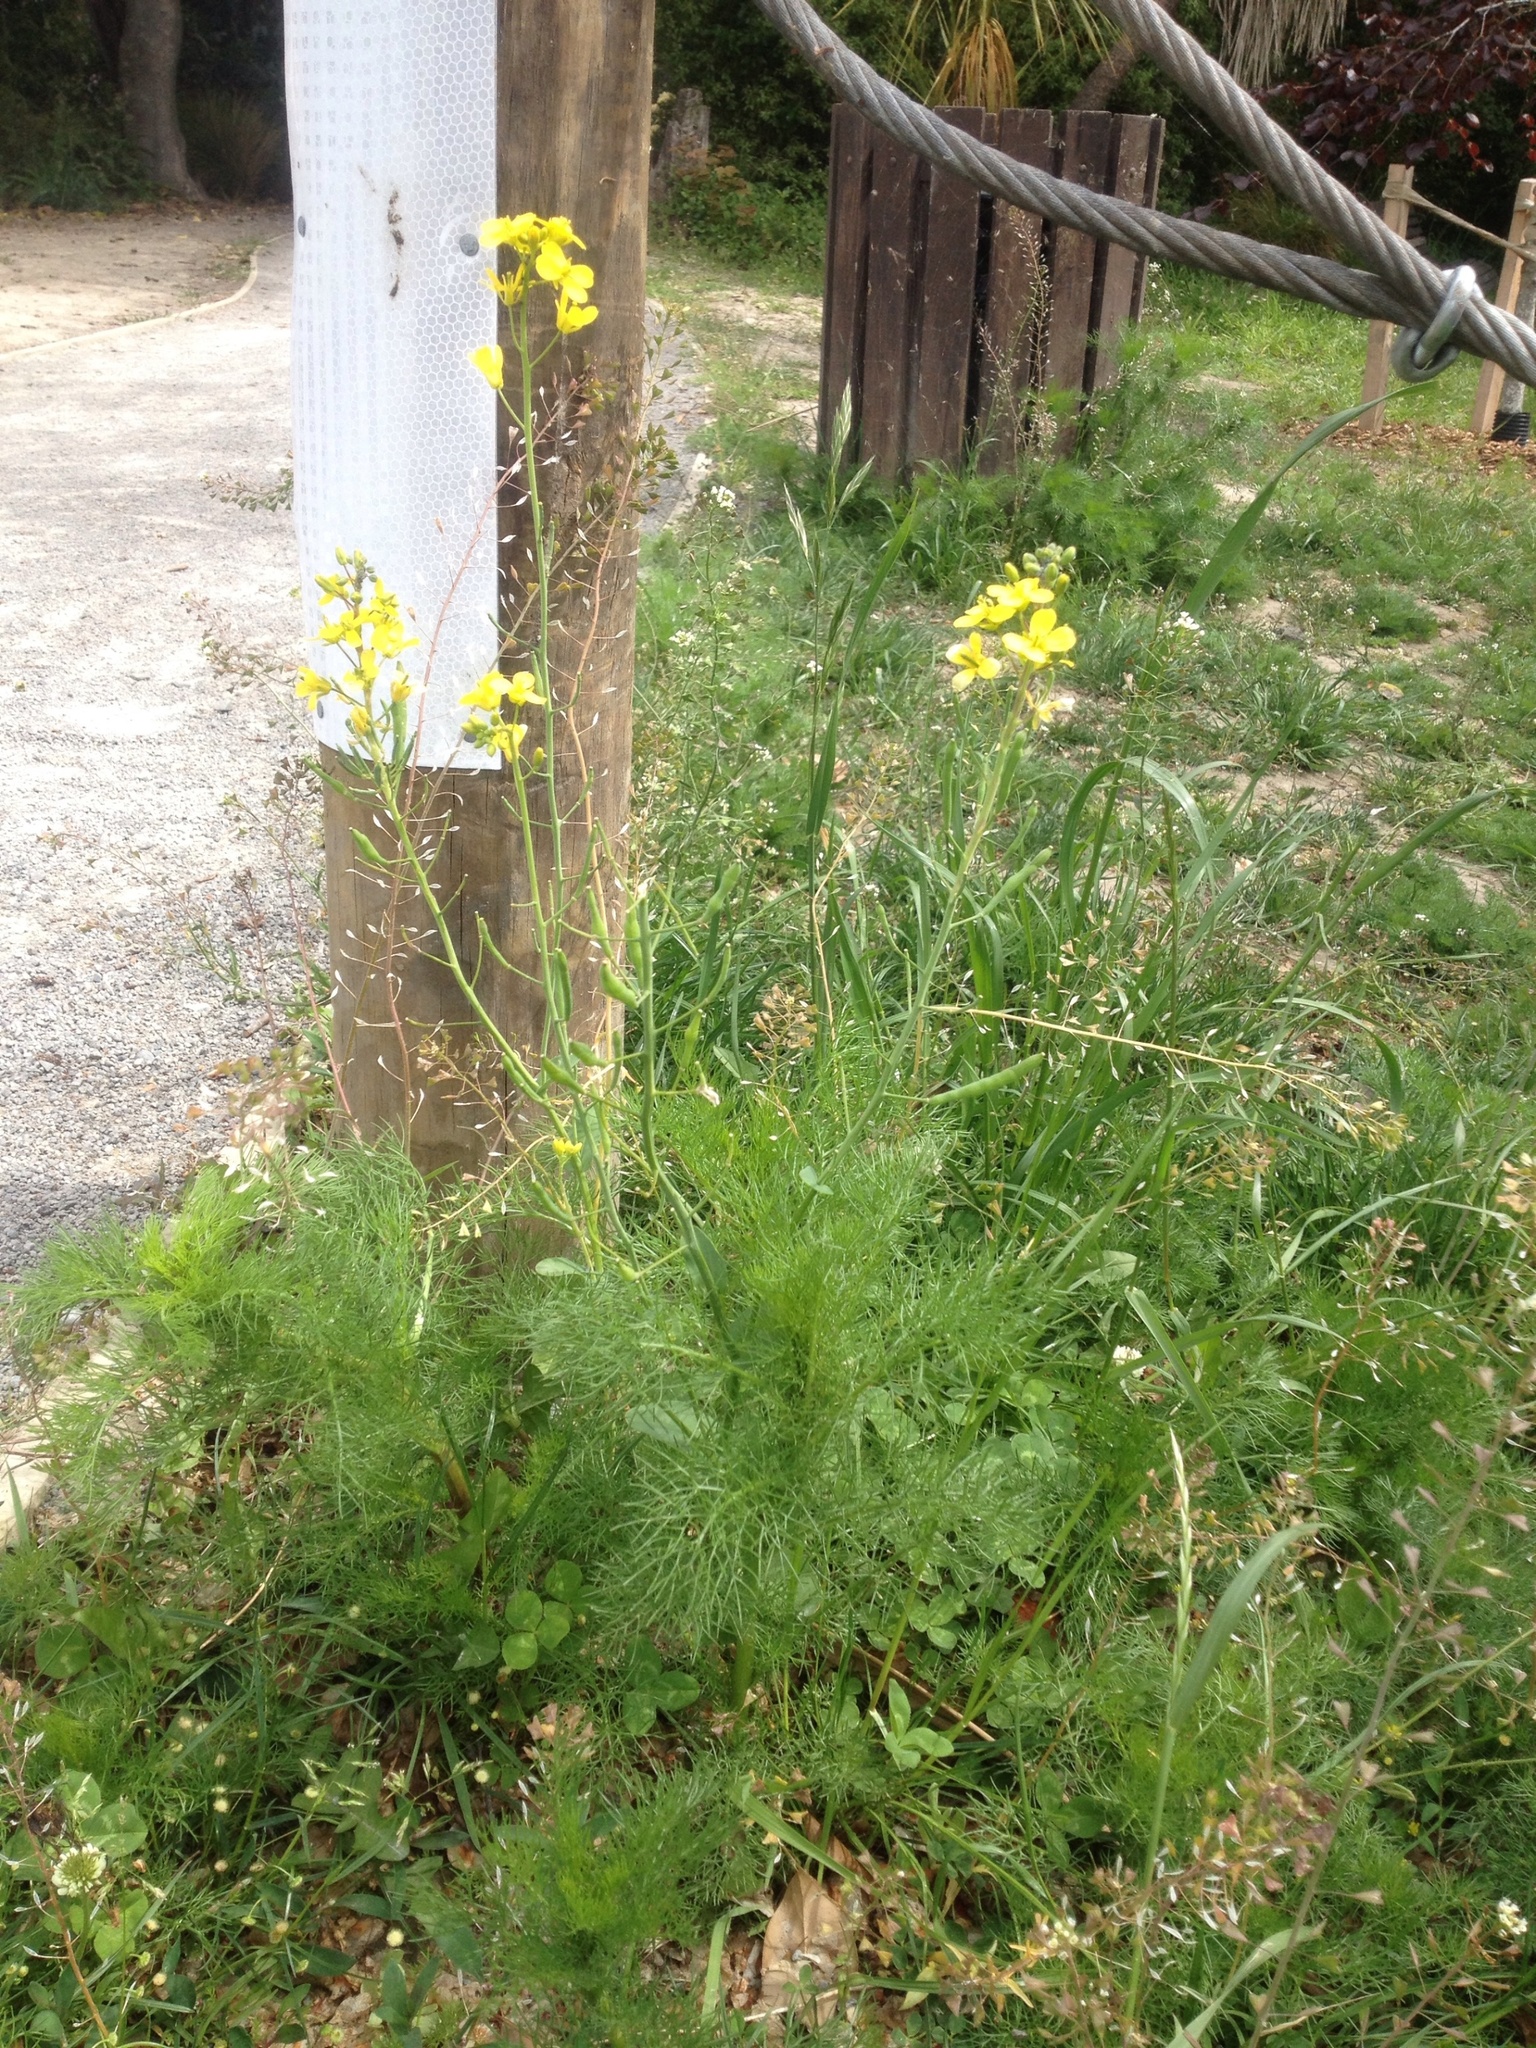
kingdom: Plantae
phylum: Tracheophyta
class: Magnoliopsida
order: Brassicales
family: Brassicaceae
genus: Brassica
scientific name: Brassica rapa
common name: Field mustard
